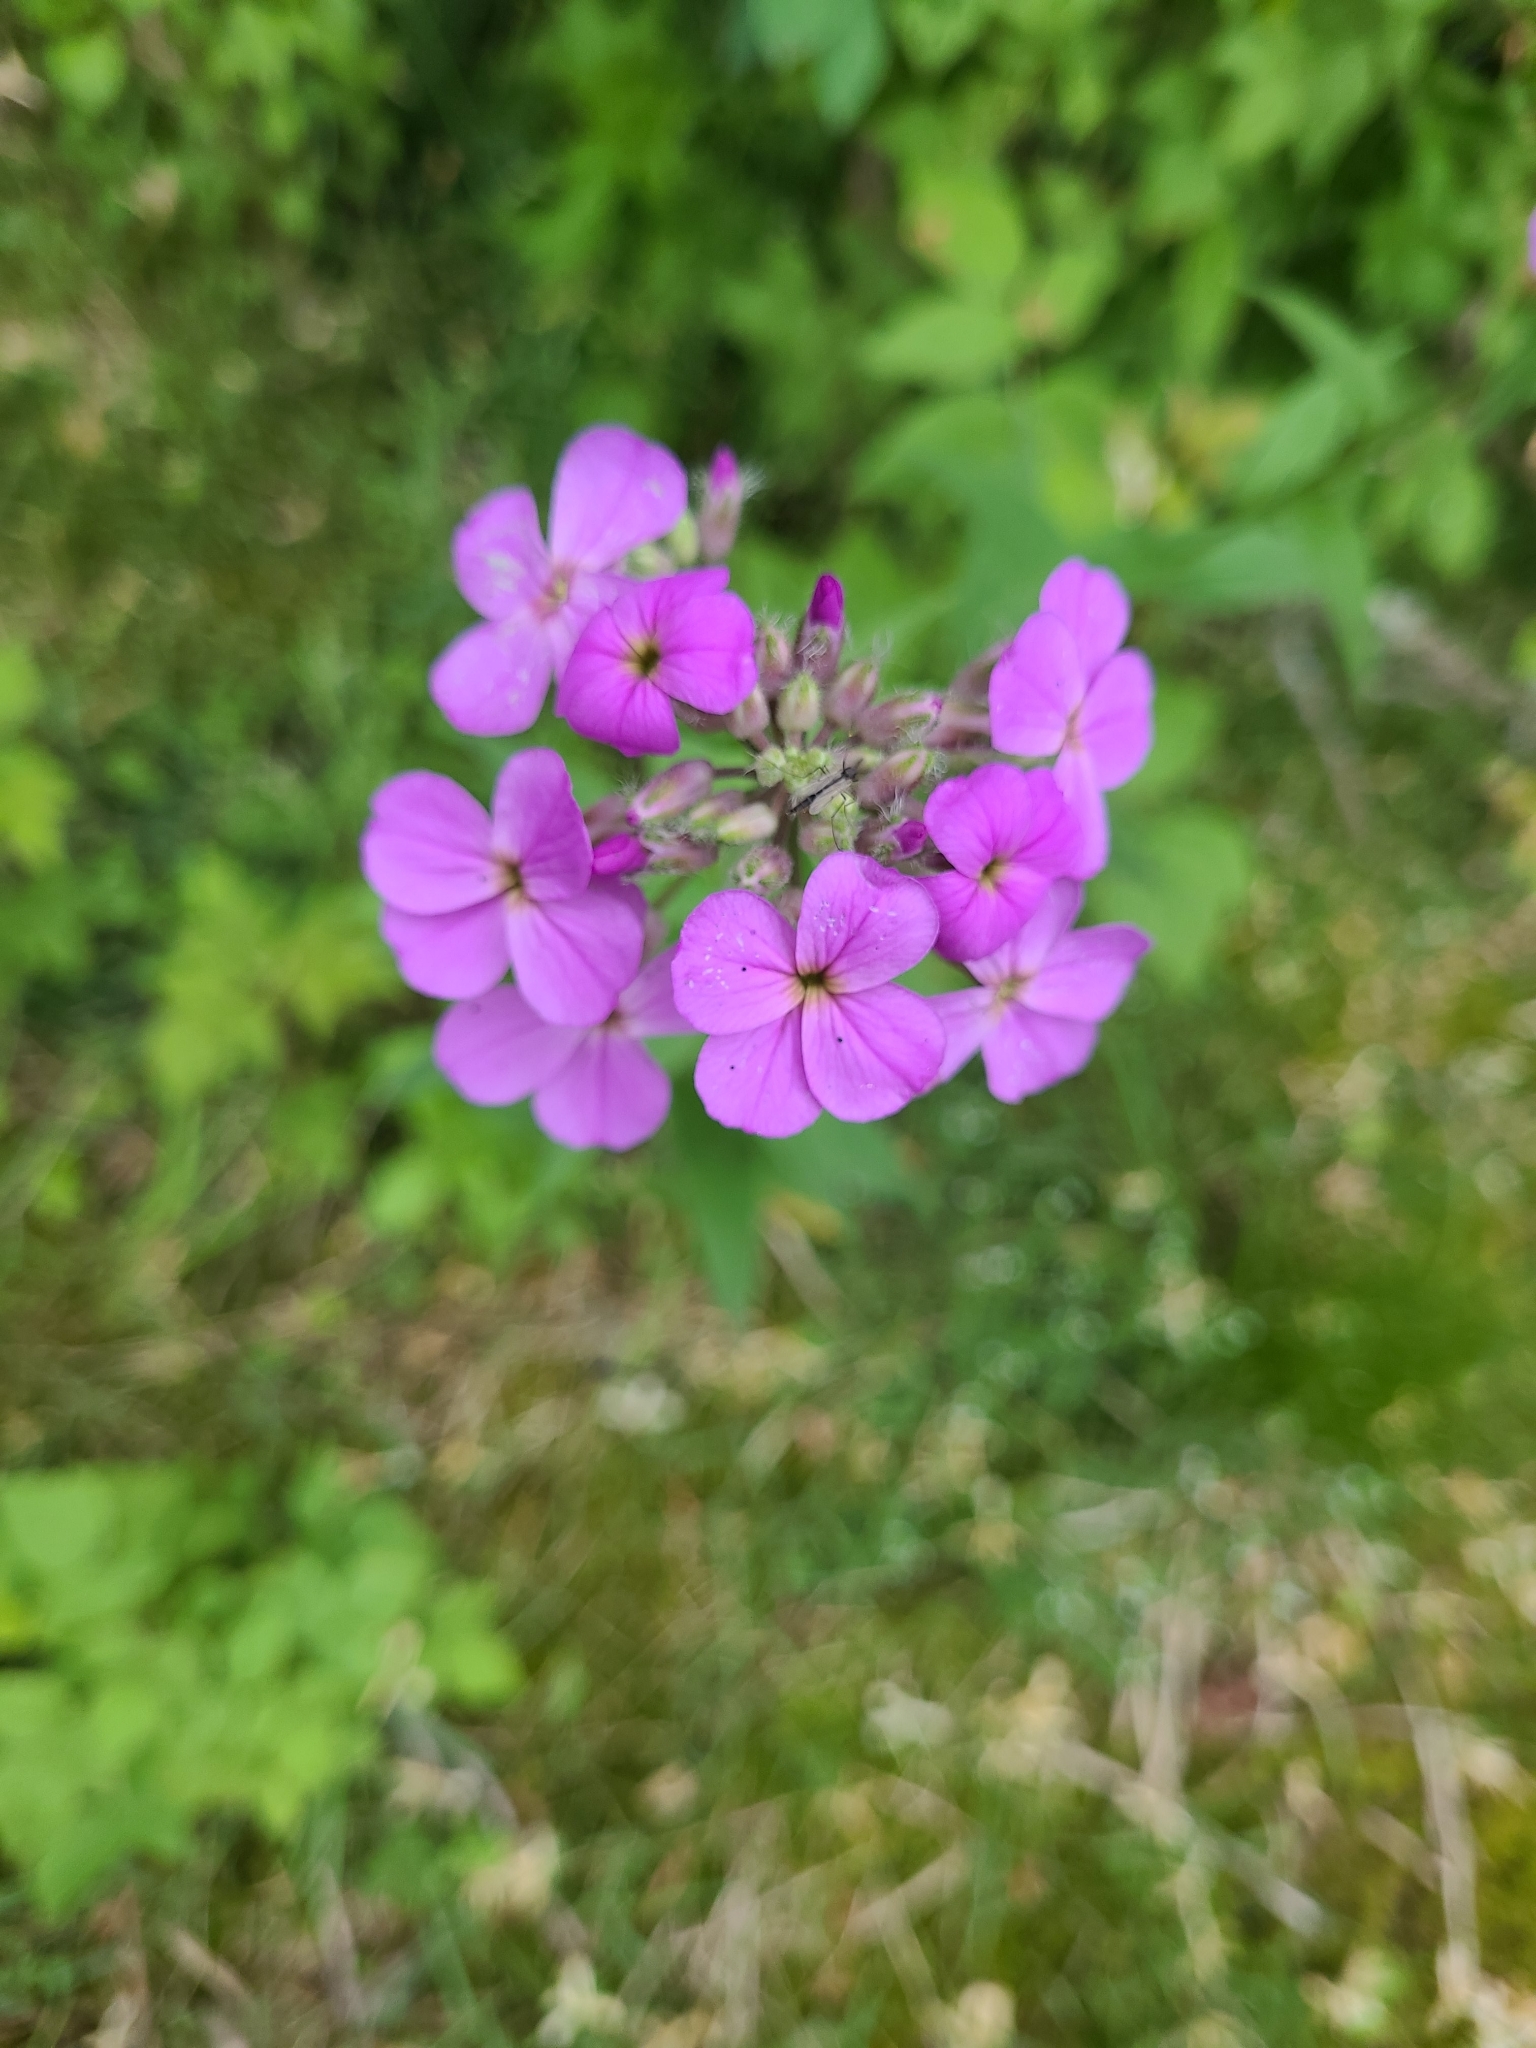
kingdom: Plantae
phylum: Tracheophyta
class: Magnoliopsida
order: Brassicales
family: Brassicaceae
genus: Hesperis
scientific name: Hesperis matronalis
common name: Dame's-violet
